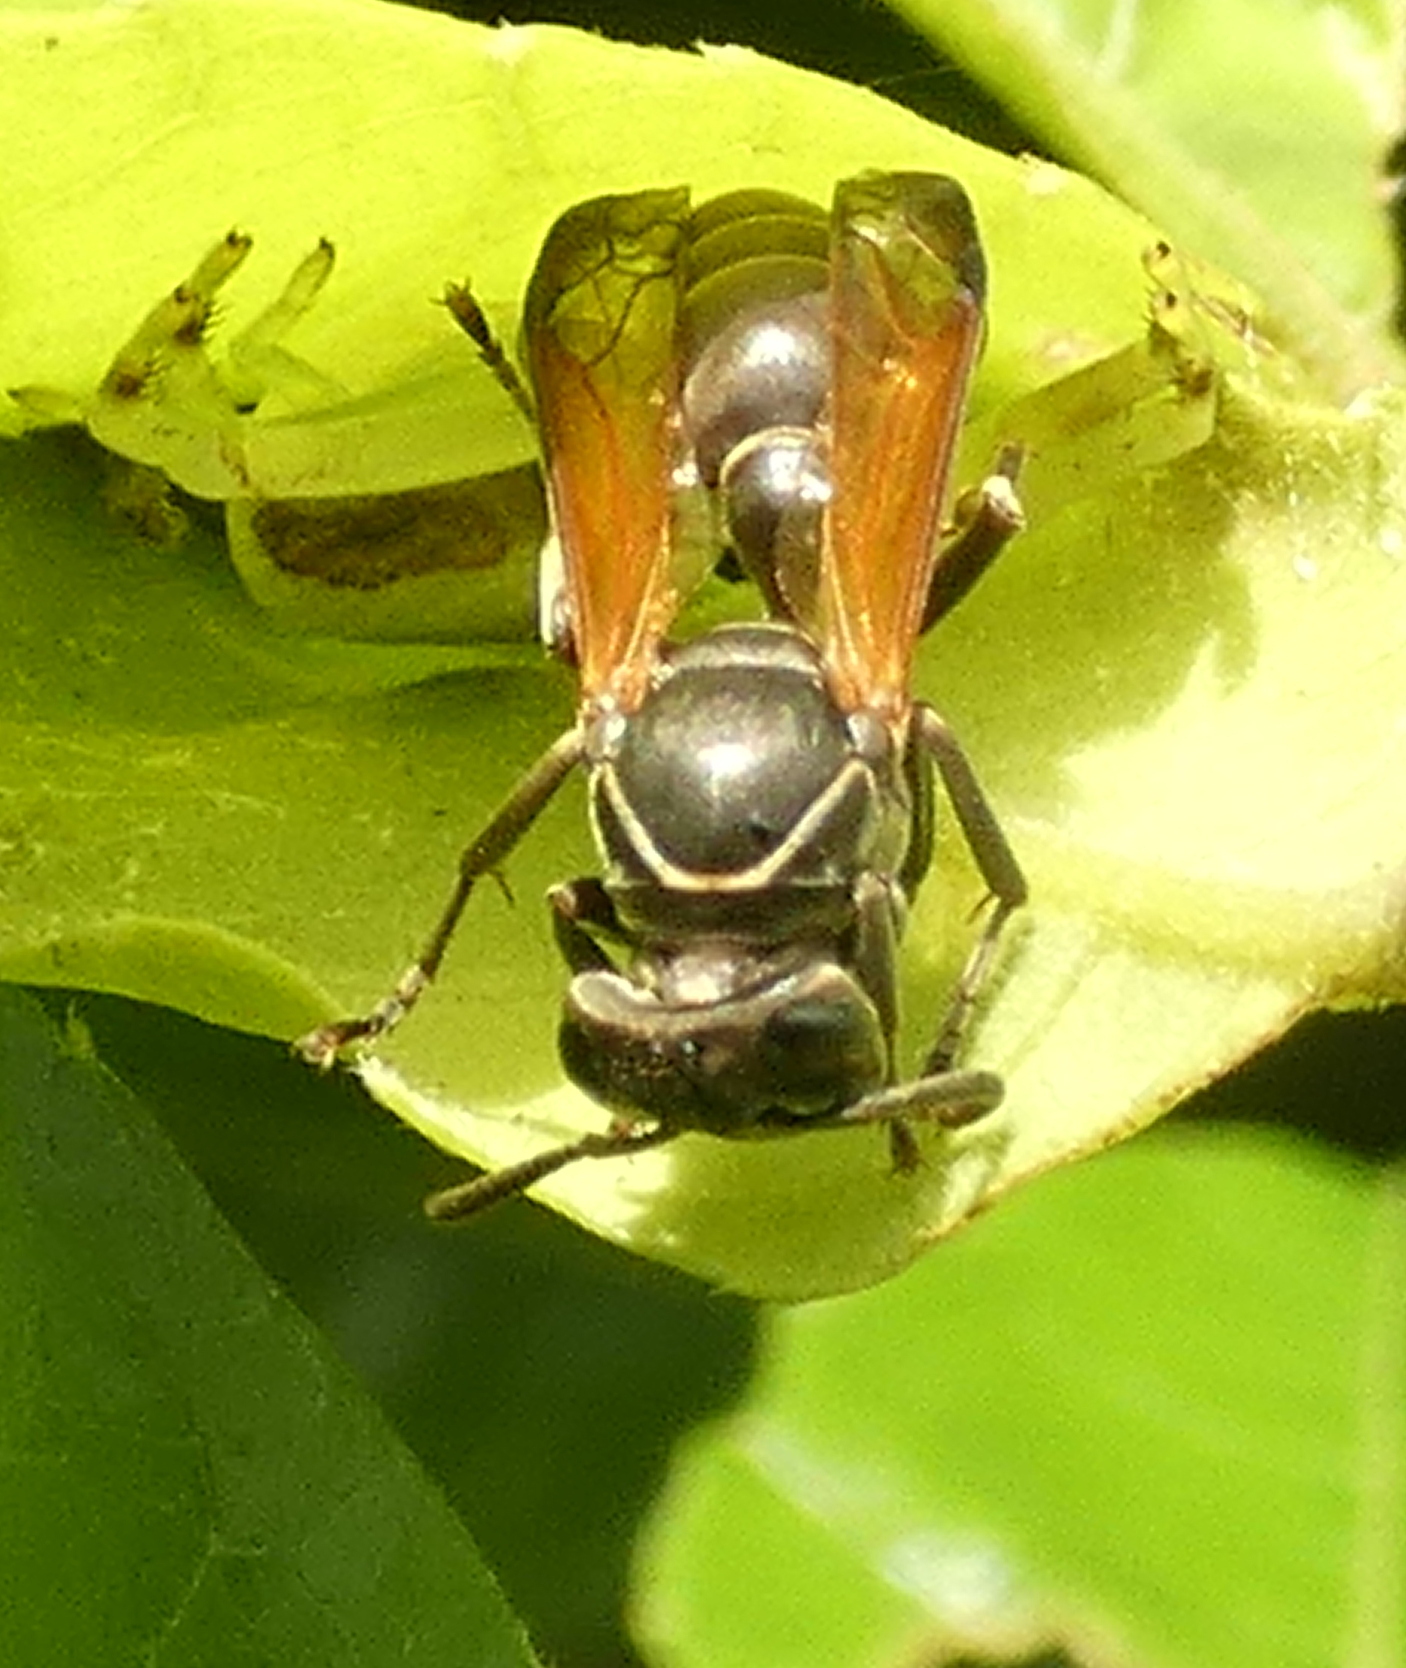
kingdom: Animalia
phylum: Arthropoda
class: Insecta
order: Hymenoptera
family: Eumenidae
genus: Polybia
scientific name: Polybia rejecta
